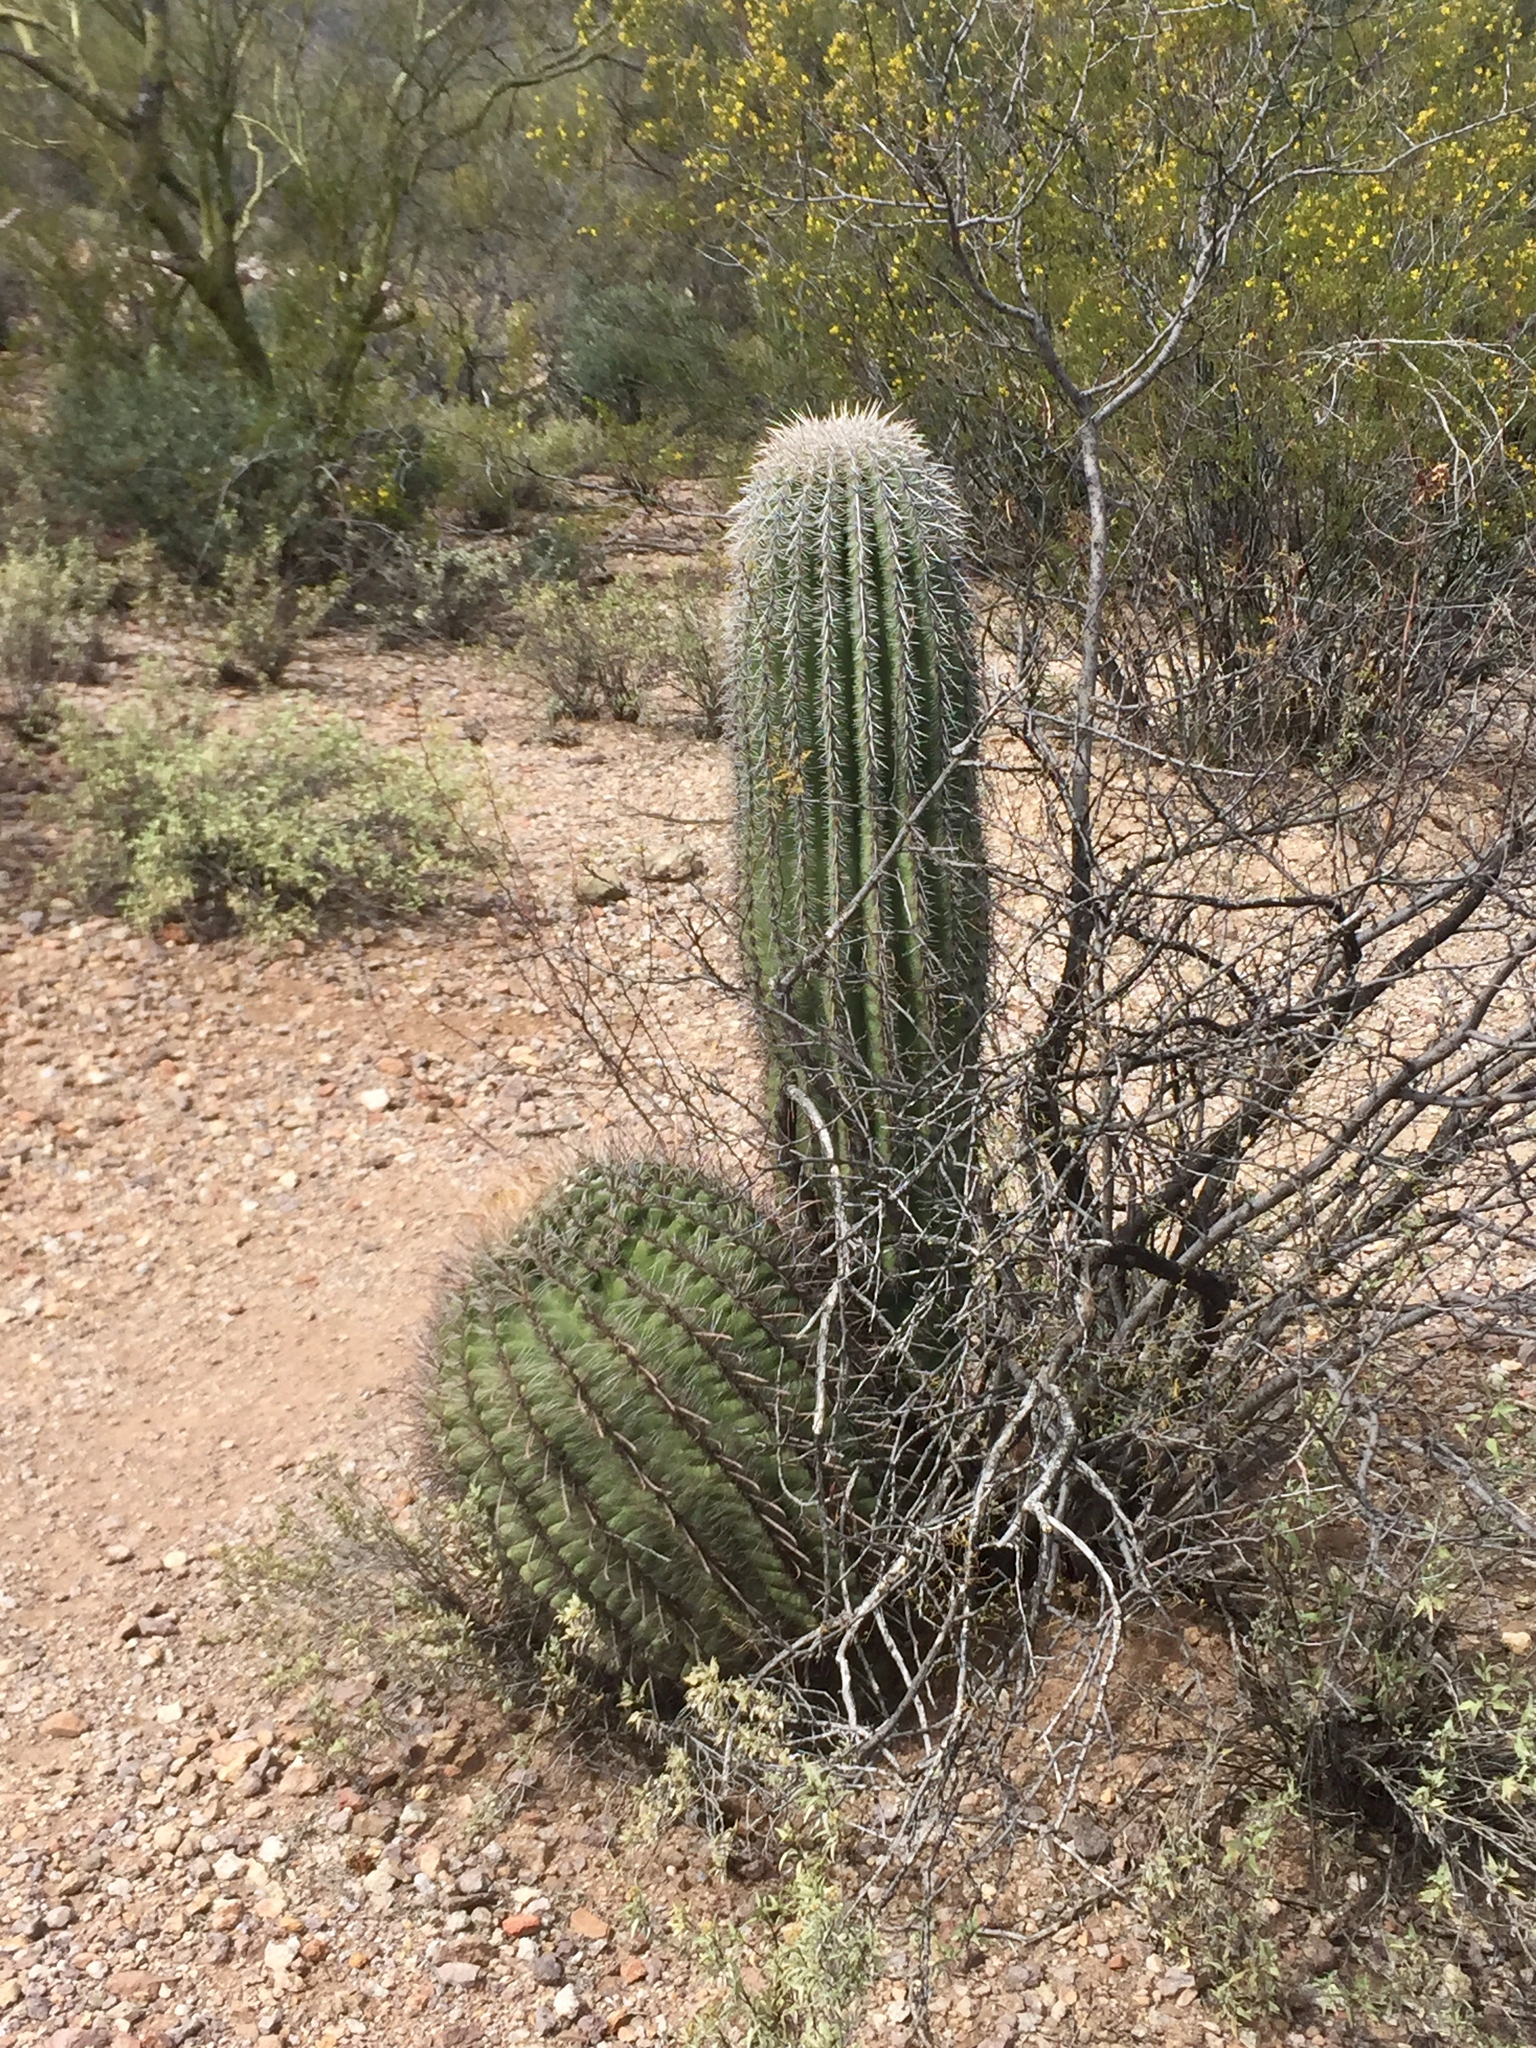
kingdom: Plantae
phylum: Tracheophyta
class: Magnoliopsida
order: Caryophyllales
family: Cactaceae
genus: Carnegiea
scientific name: Carnegiea gigantea
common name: Saguaro
